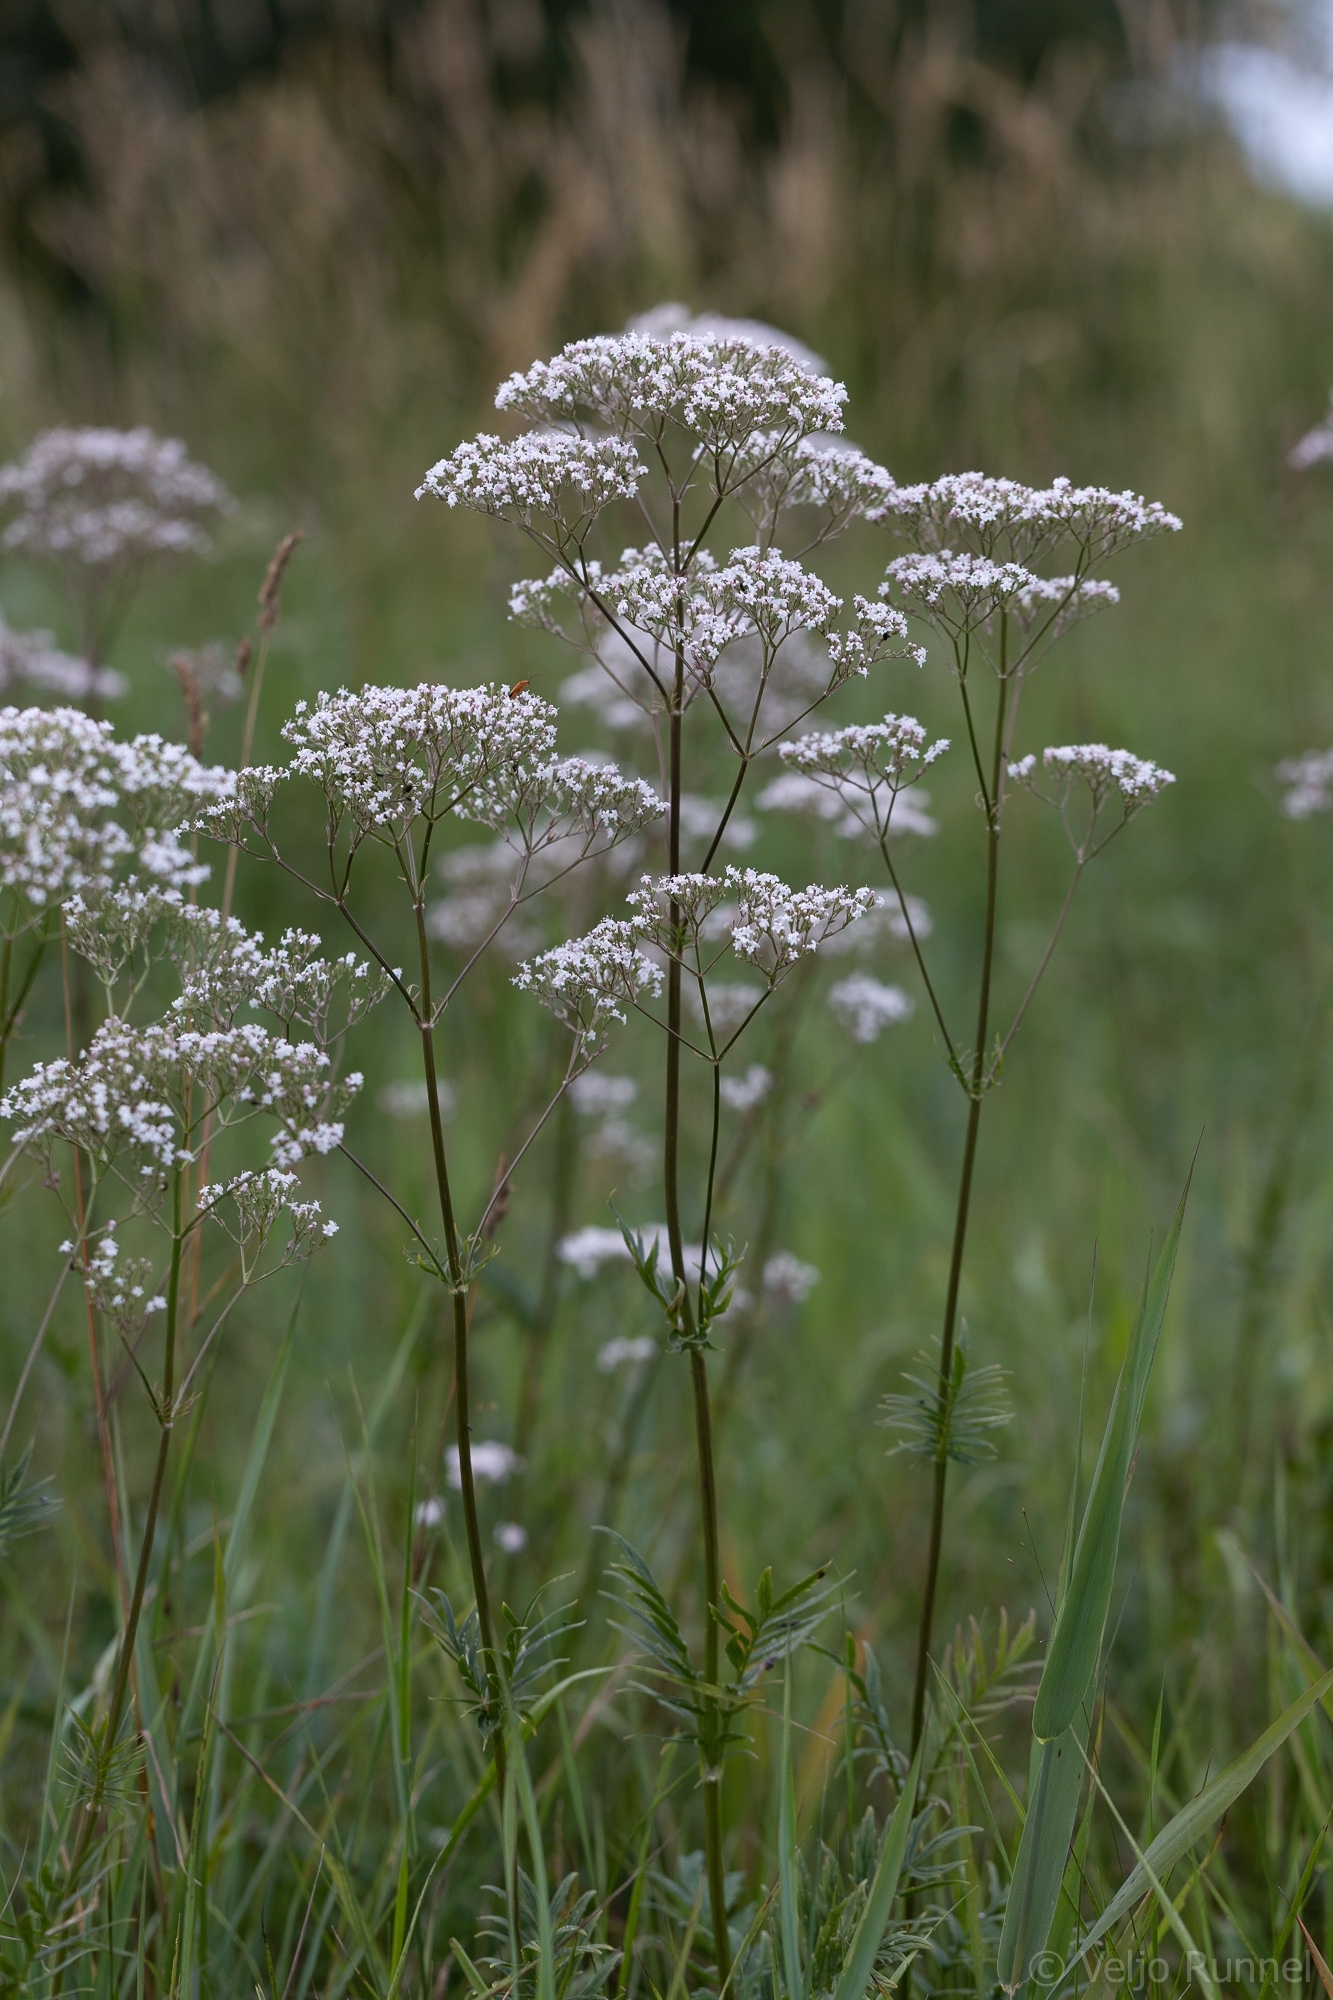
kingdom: Plantae
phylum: Tracheophyta
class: Magnoliopsida
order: Dipsacales
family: Caprifoliaceae
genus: Valeriana
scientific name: Valeriana officinalis
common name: Common valerian
